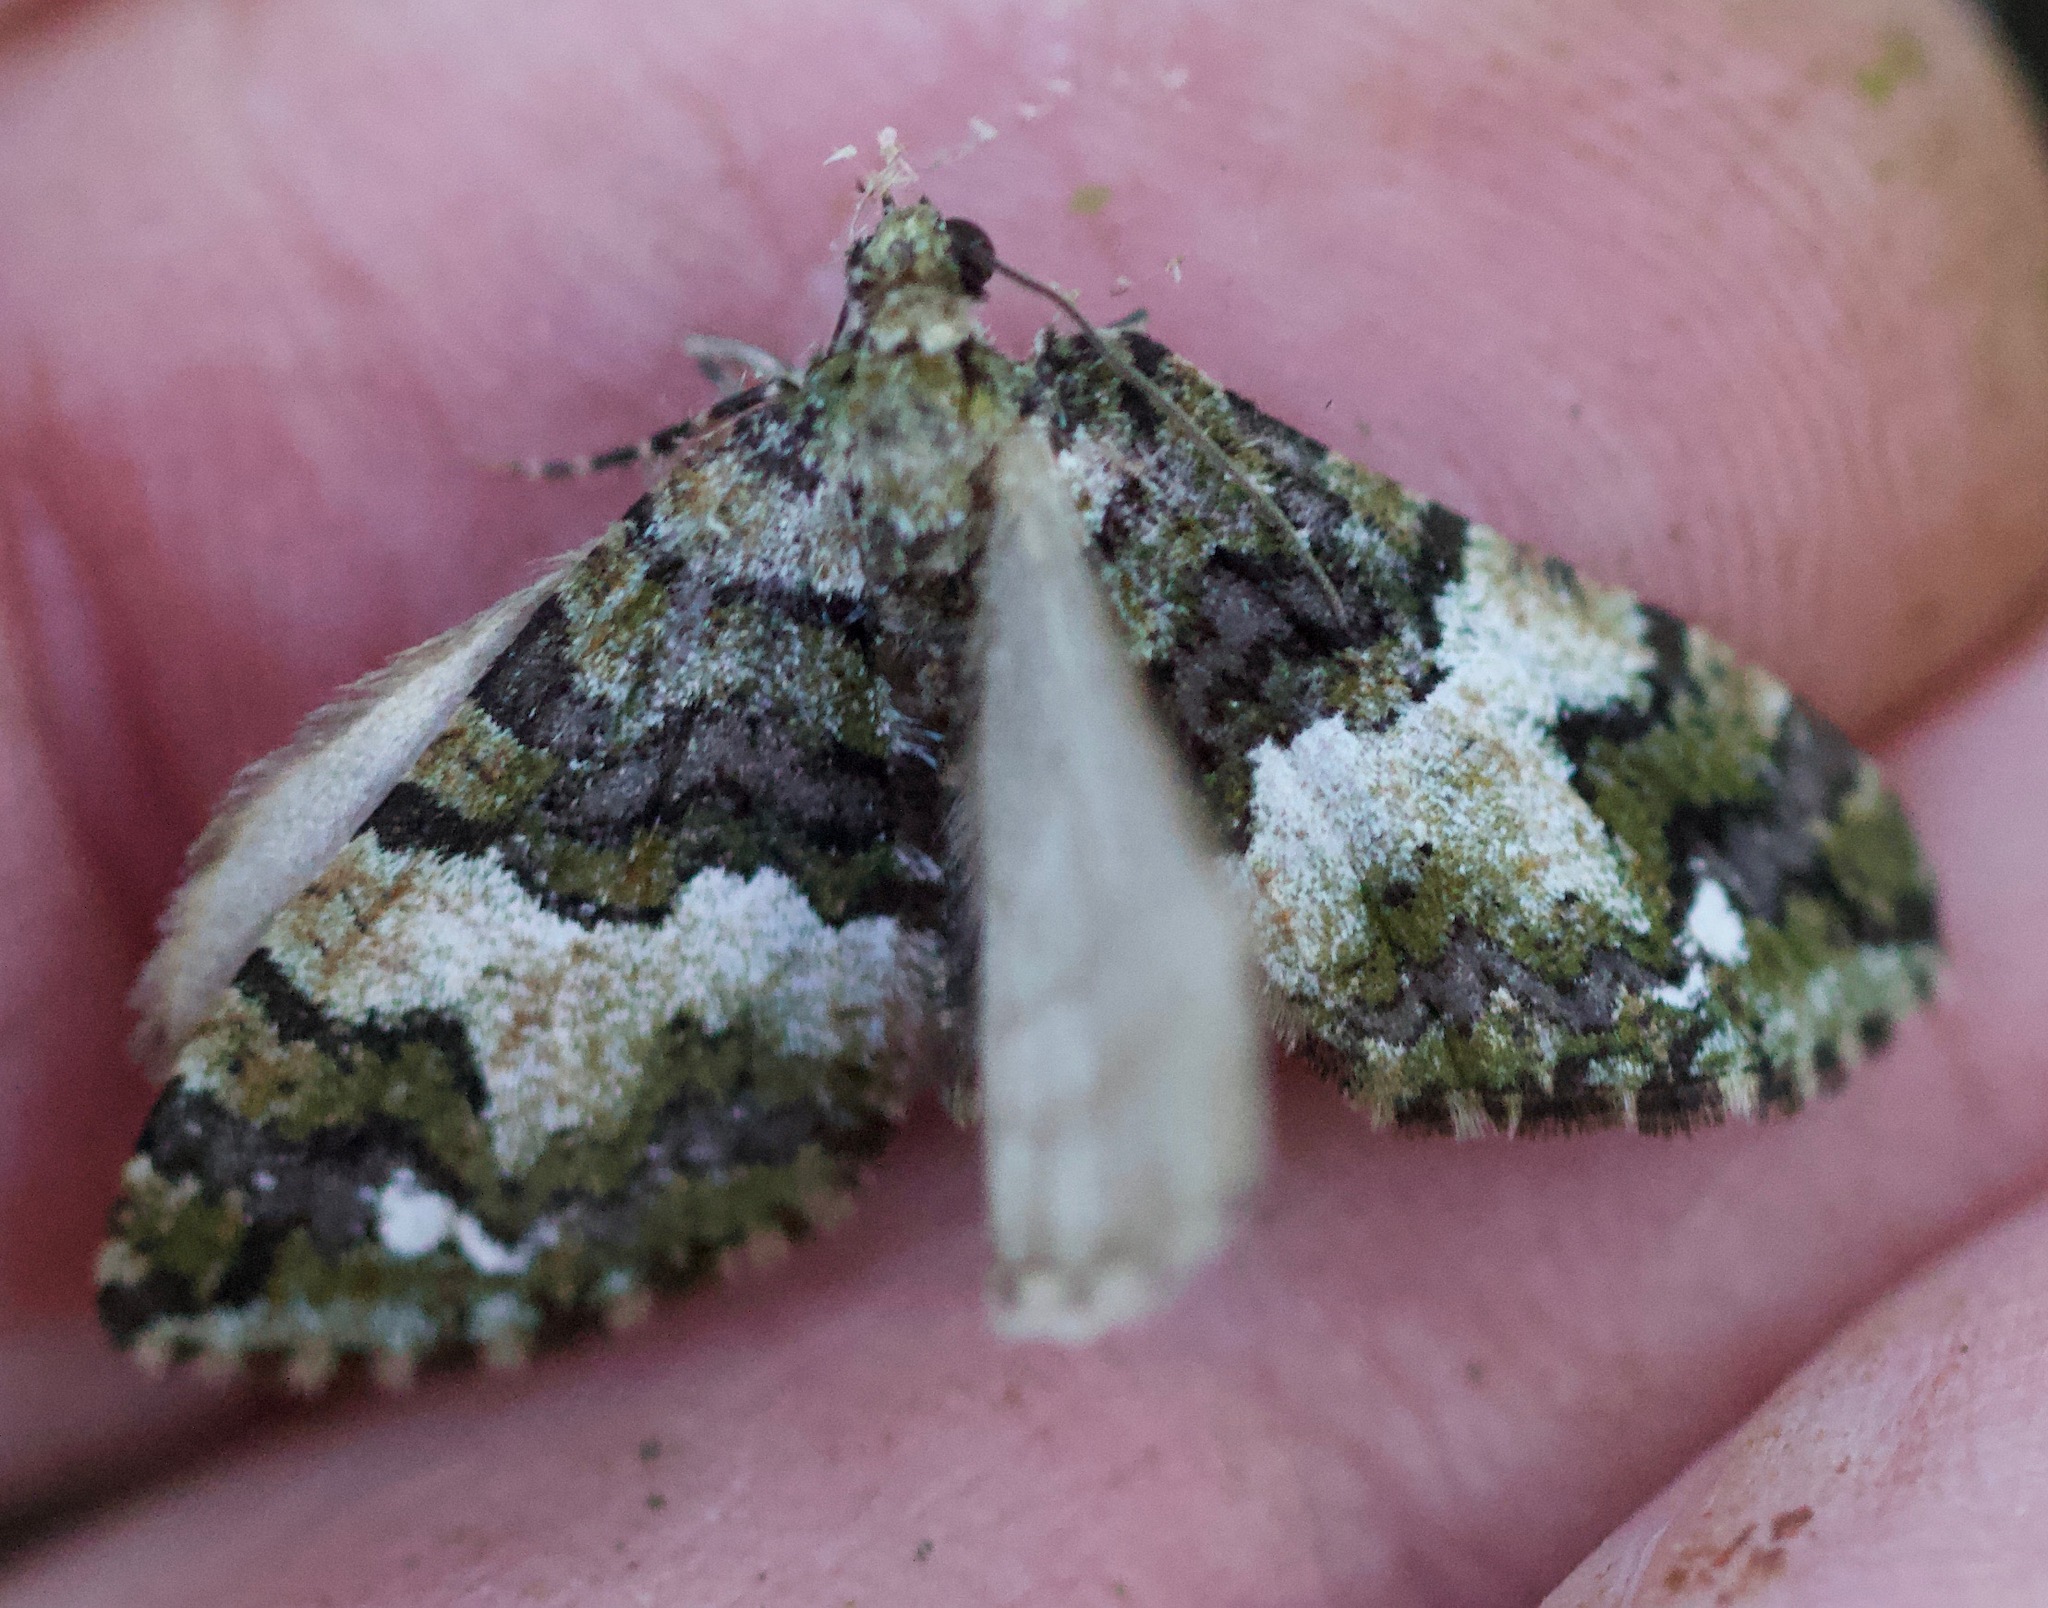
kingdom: Animalia
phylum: Arthropoda
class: Insecta
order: Lepidoptera
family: Geometridae
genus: Hydriomena
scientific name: Hydriomena albifasciata
